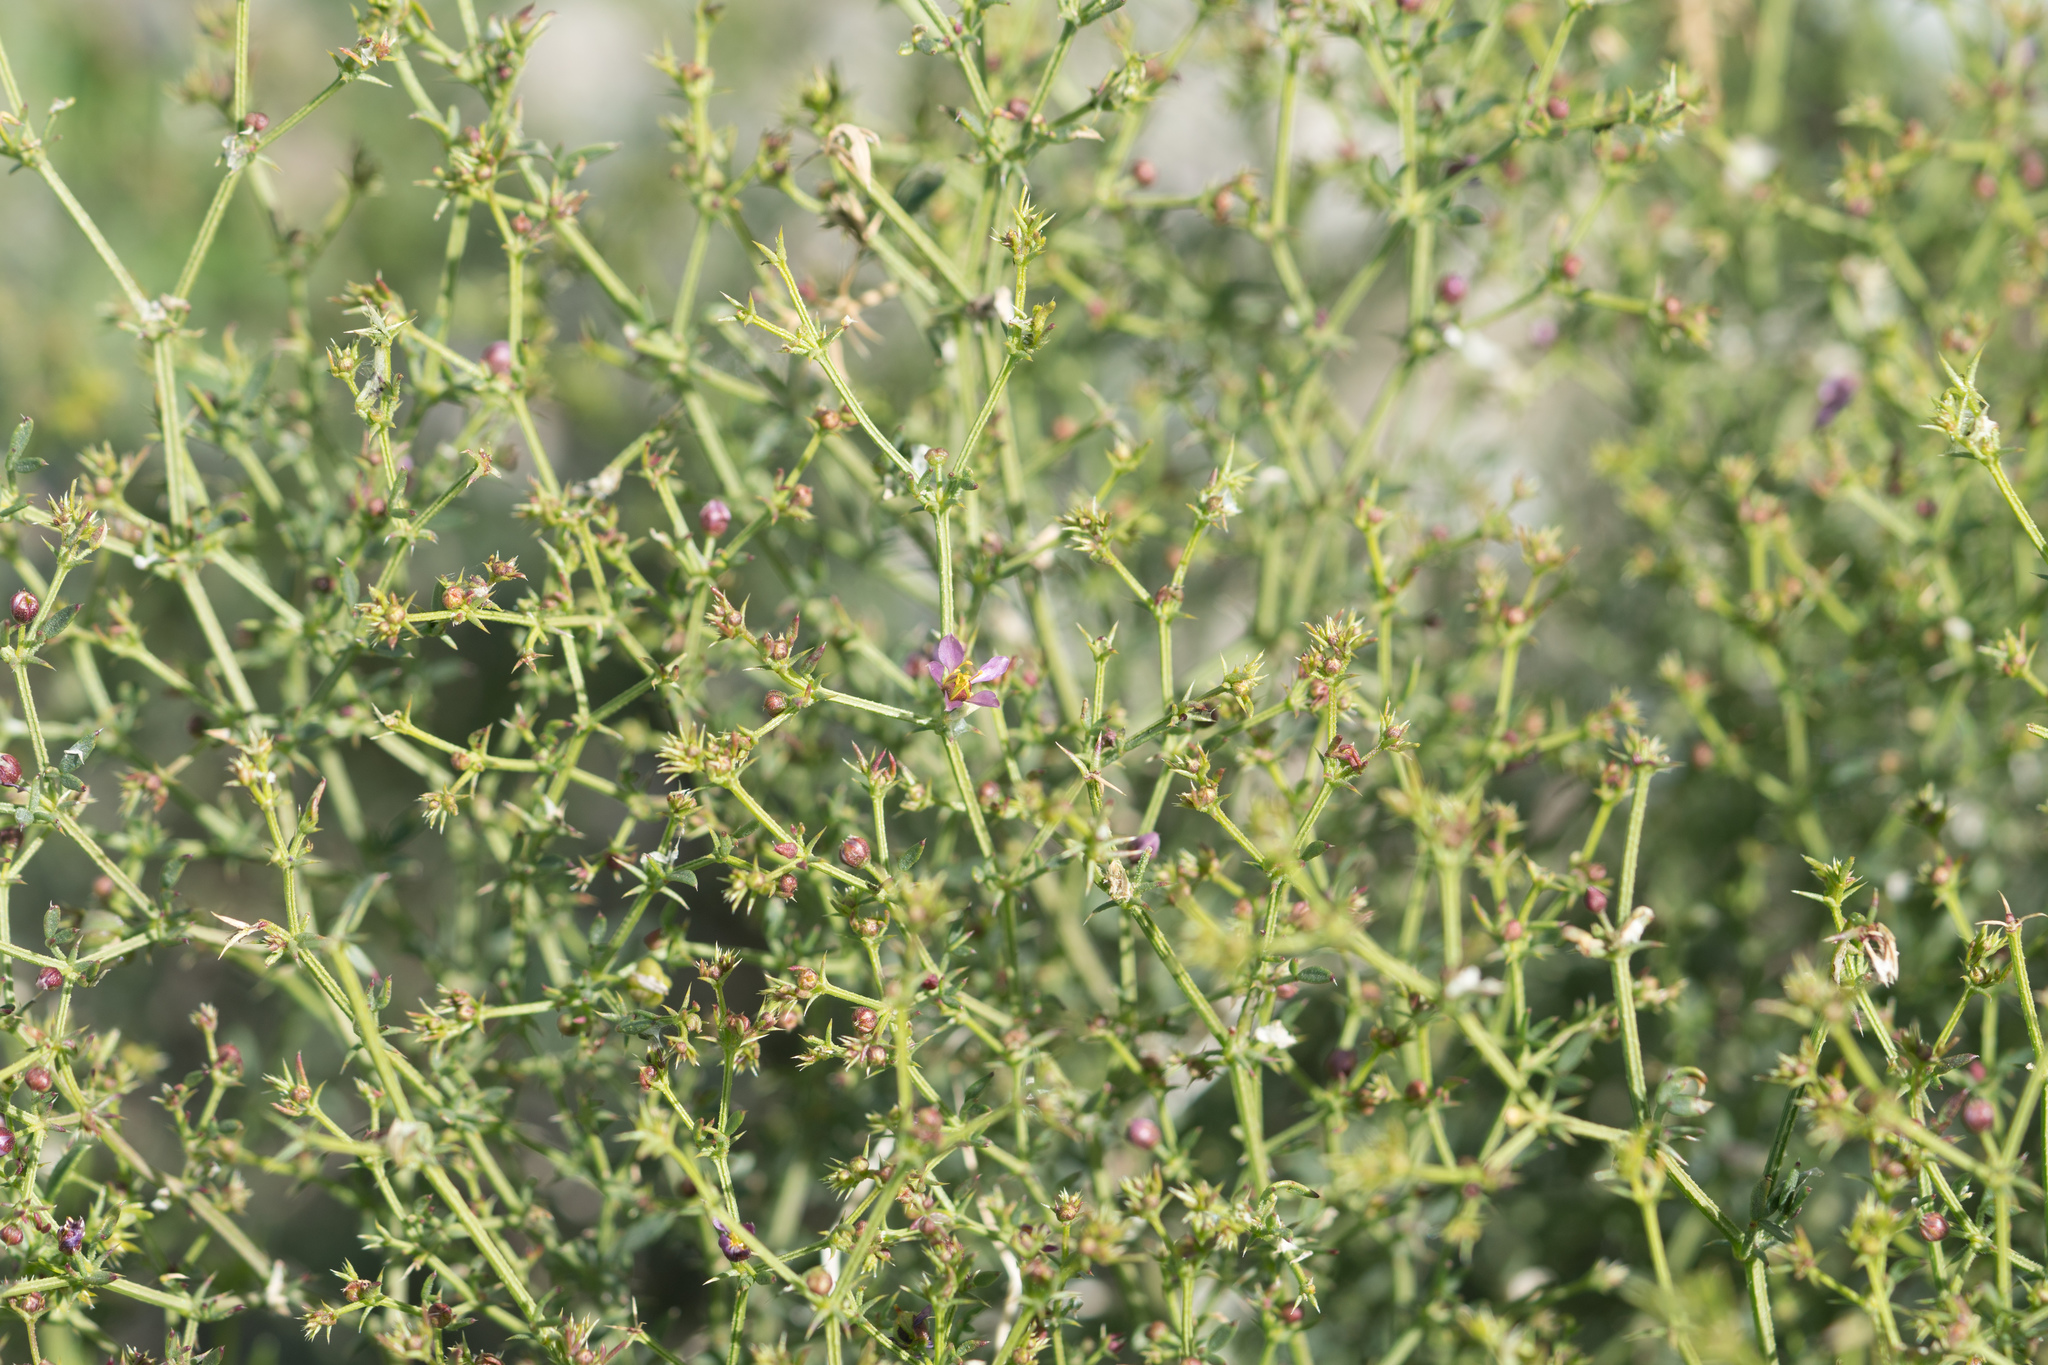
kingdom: Plantae
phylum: Tracheophyta
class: Magnoliopsida
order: Zygophyllales
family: Zygophyllaceae
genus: Fagonia
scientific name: Fagonia laevis
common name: California fagonbush
